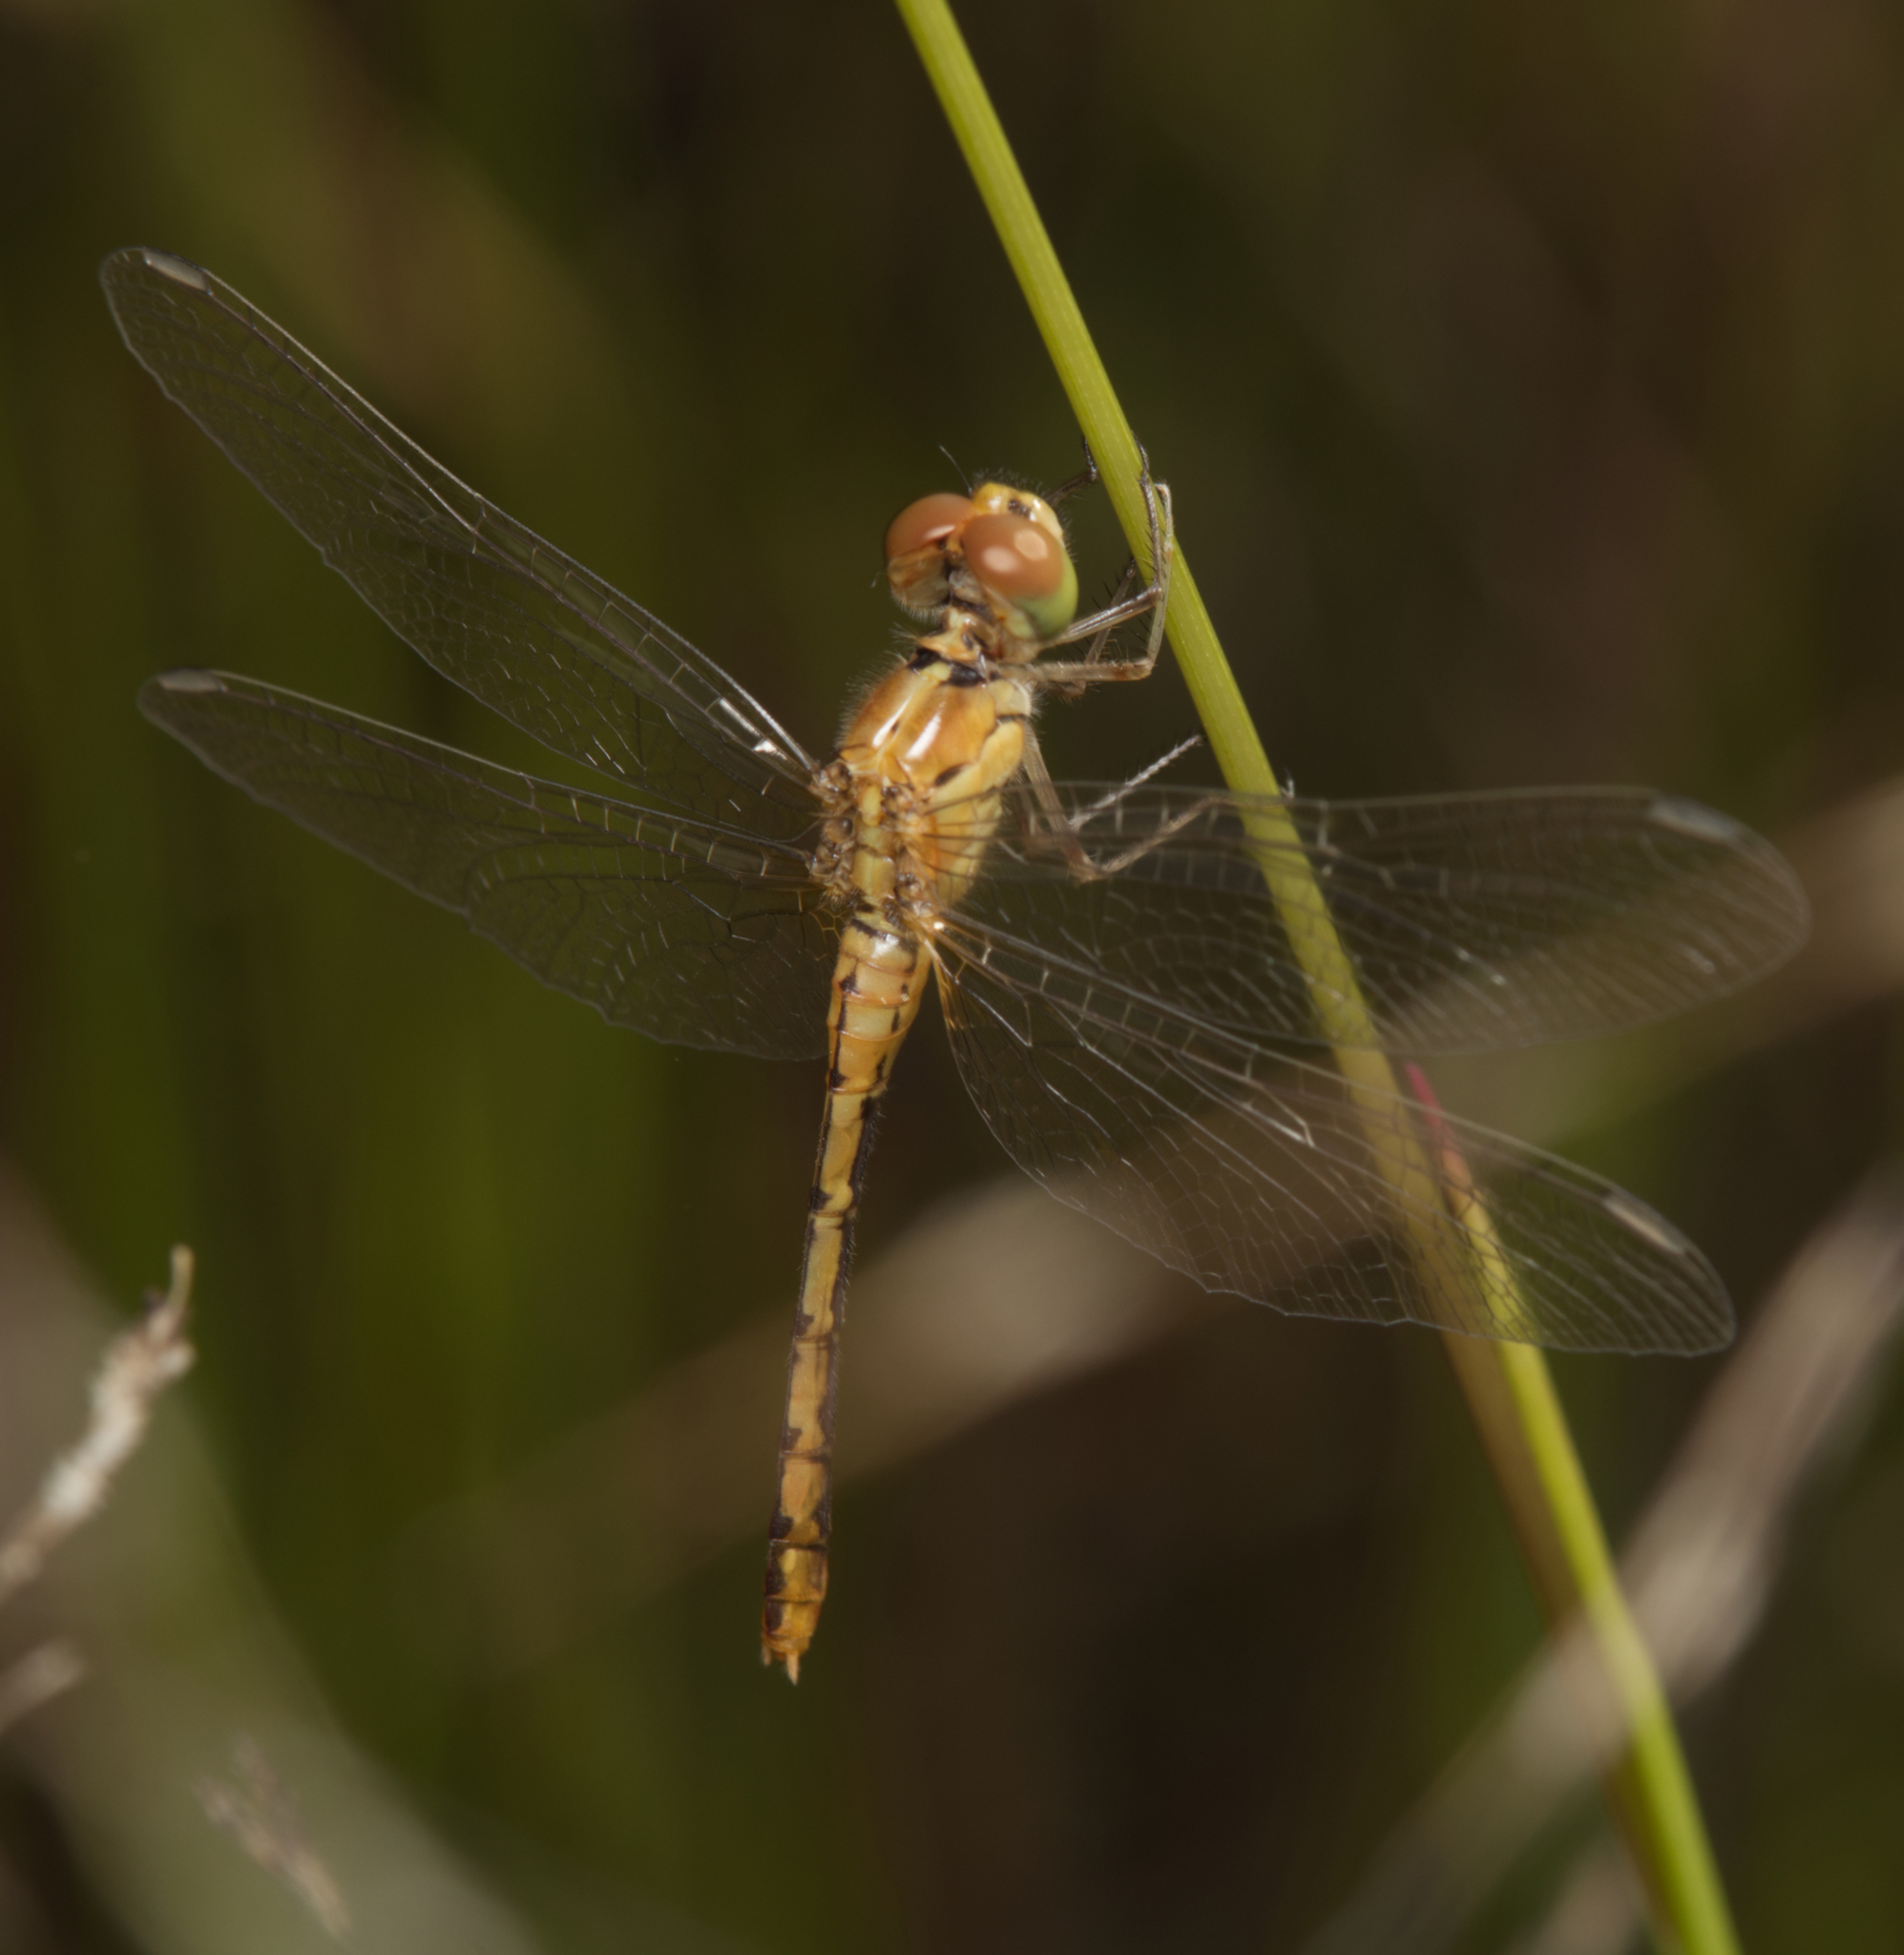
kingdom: Animalia
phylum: Arthropoda
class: Insecta
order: Odonata
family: Libellulidae
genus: Diplacodes
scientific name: Diplacodes bipunctata
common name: Red percher dragonfly
